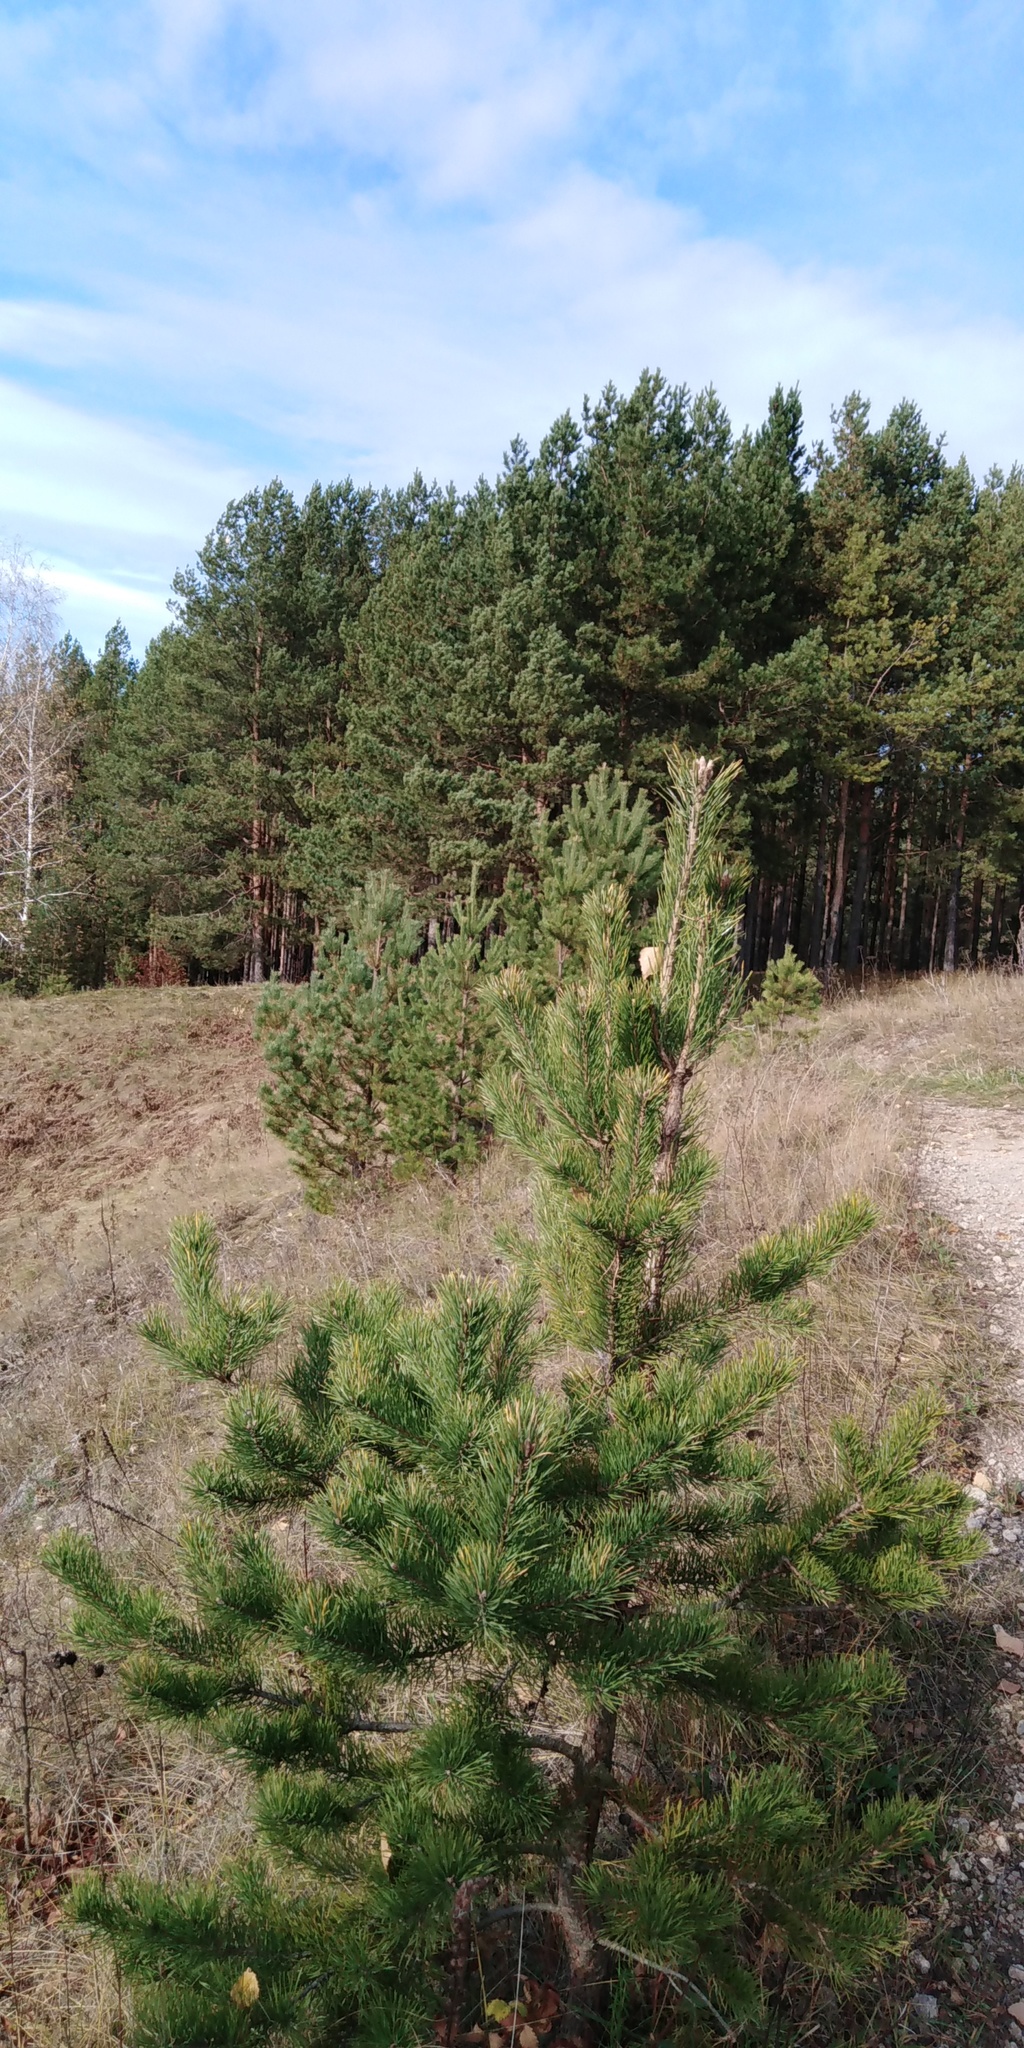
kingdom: Plantae
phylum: Tracheophyta
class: Pinopsida
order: Pinales
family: Pinaceae
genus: Pinus
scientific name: Pinus sylvestris
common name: Scots pine
